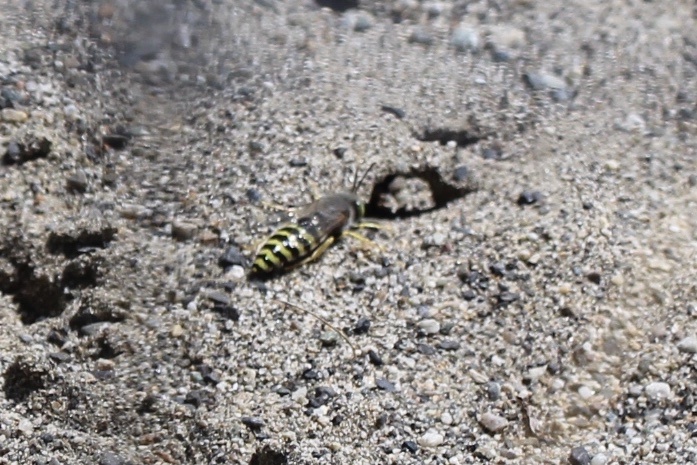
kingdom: Animalia
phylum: Arthropoda
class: Insecta
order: Hymenoptera
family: Crabronidae
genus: Bembix
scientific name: Bembix americana
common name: American sand wasp
